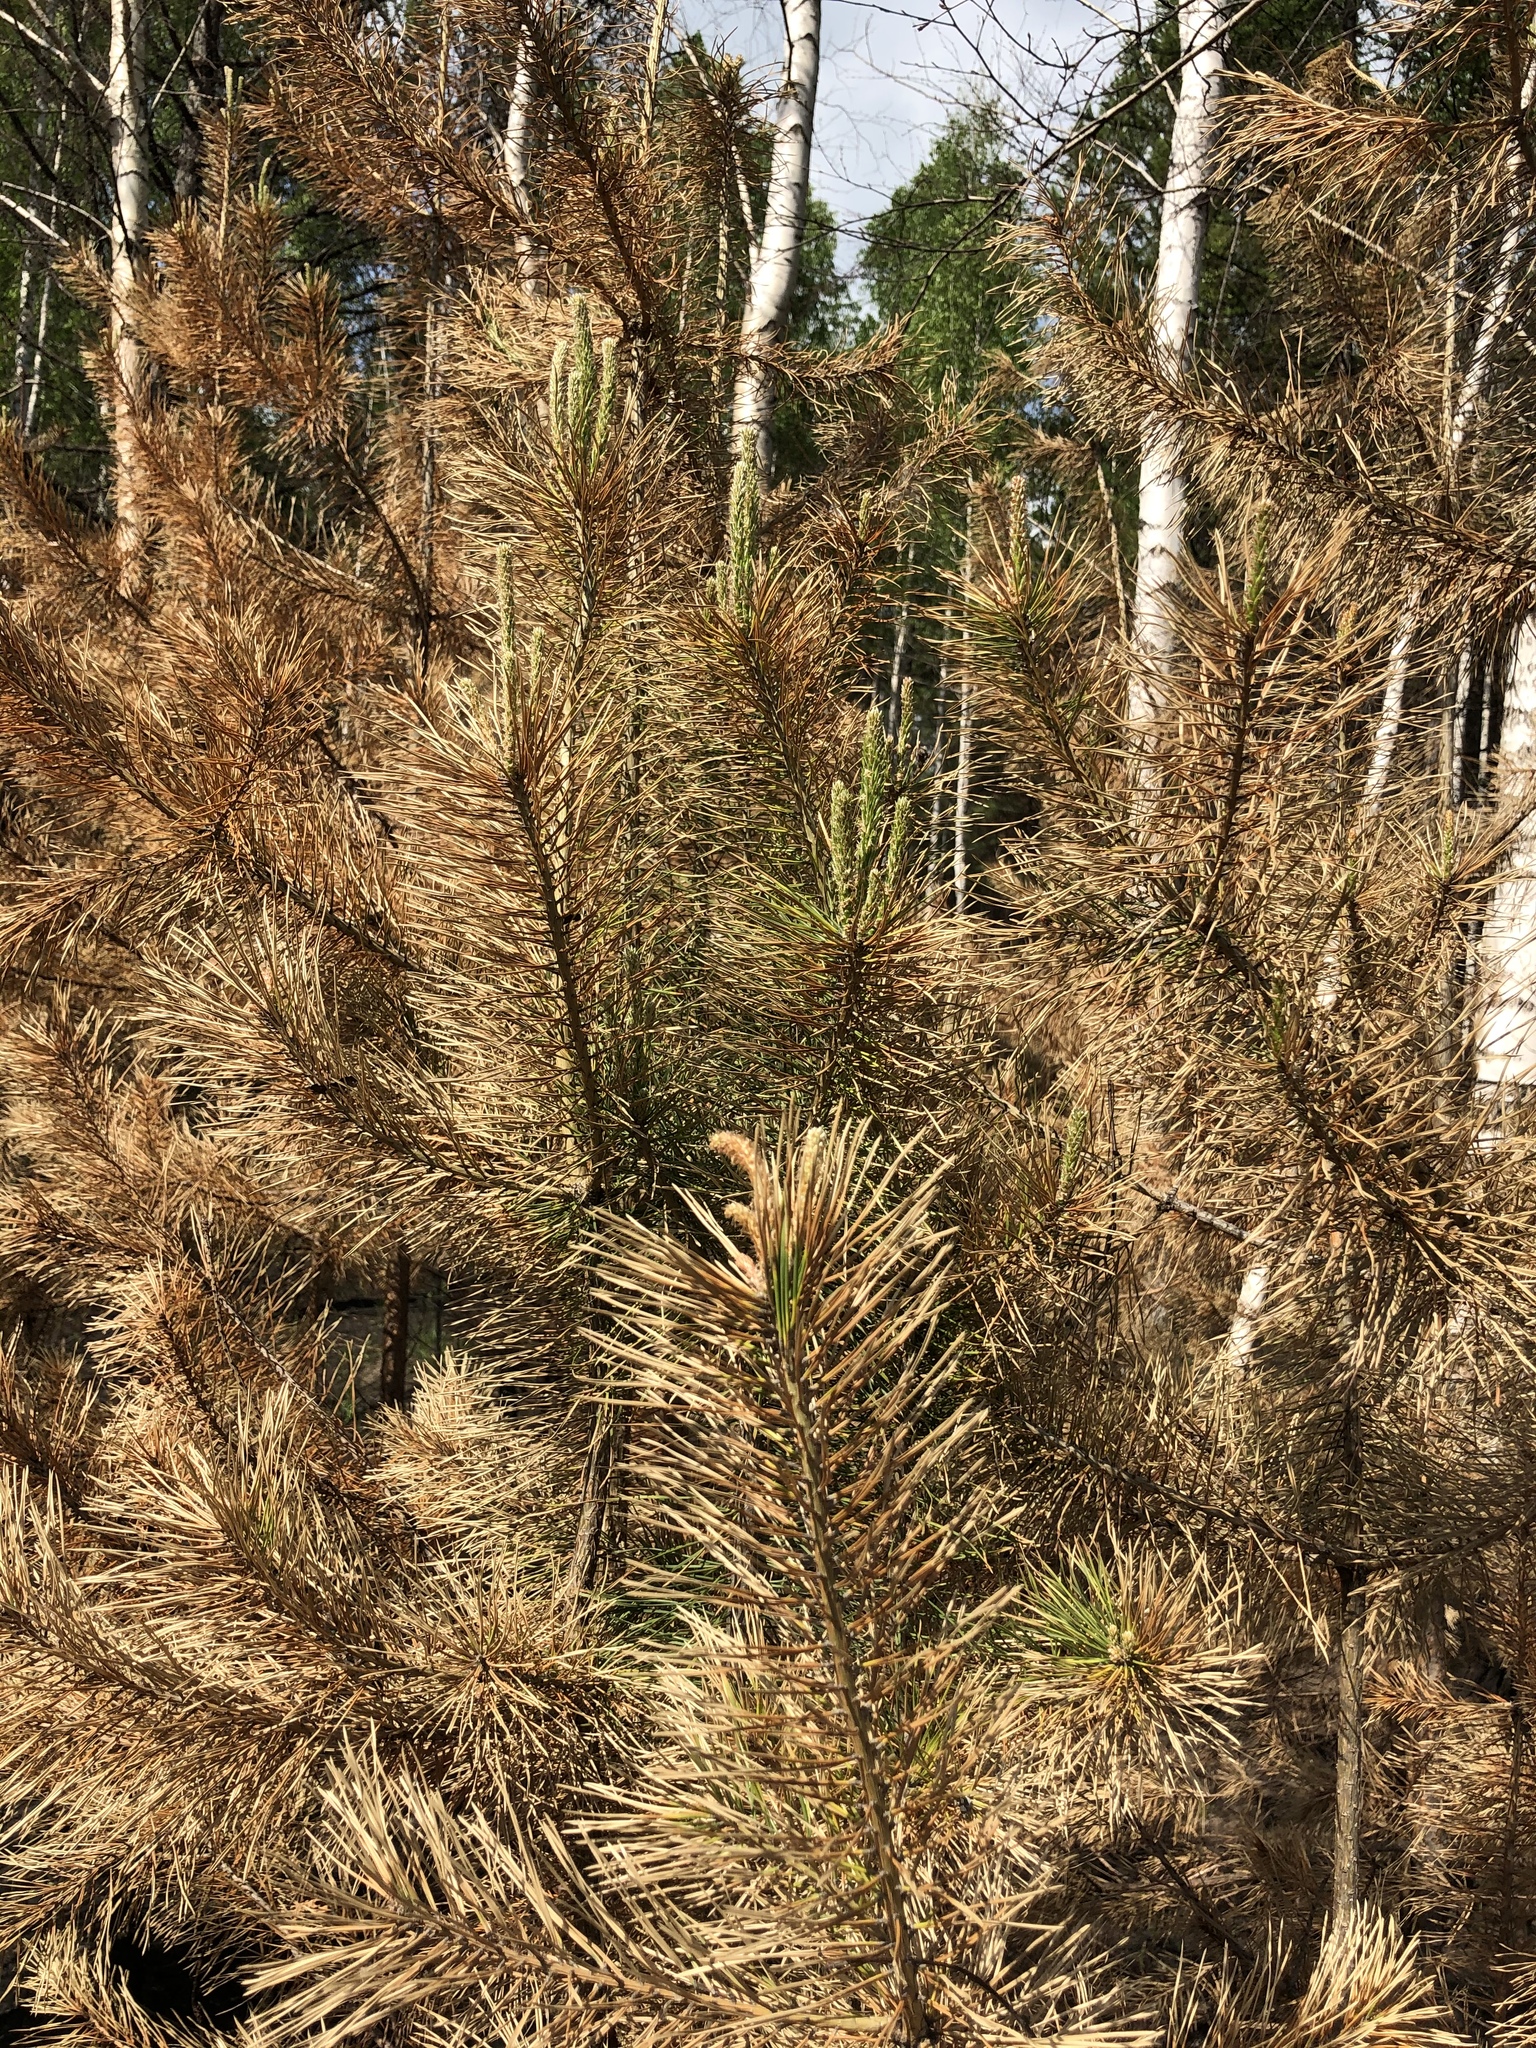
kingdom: Plantae
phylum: Tracheophyta
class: Pinopsida
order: Pinales
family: Pinaceae
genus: Pinus
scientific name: Pinus sylvestris
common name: Scots pine
